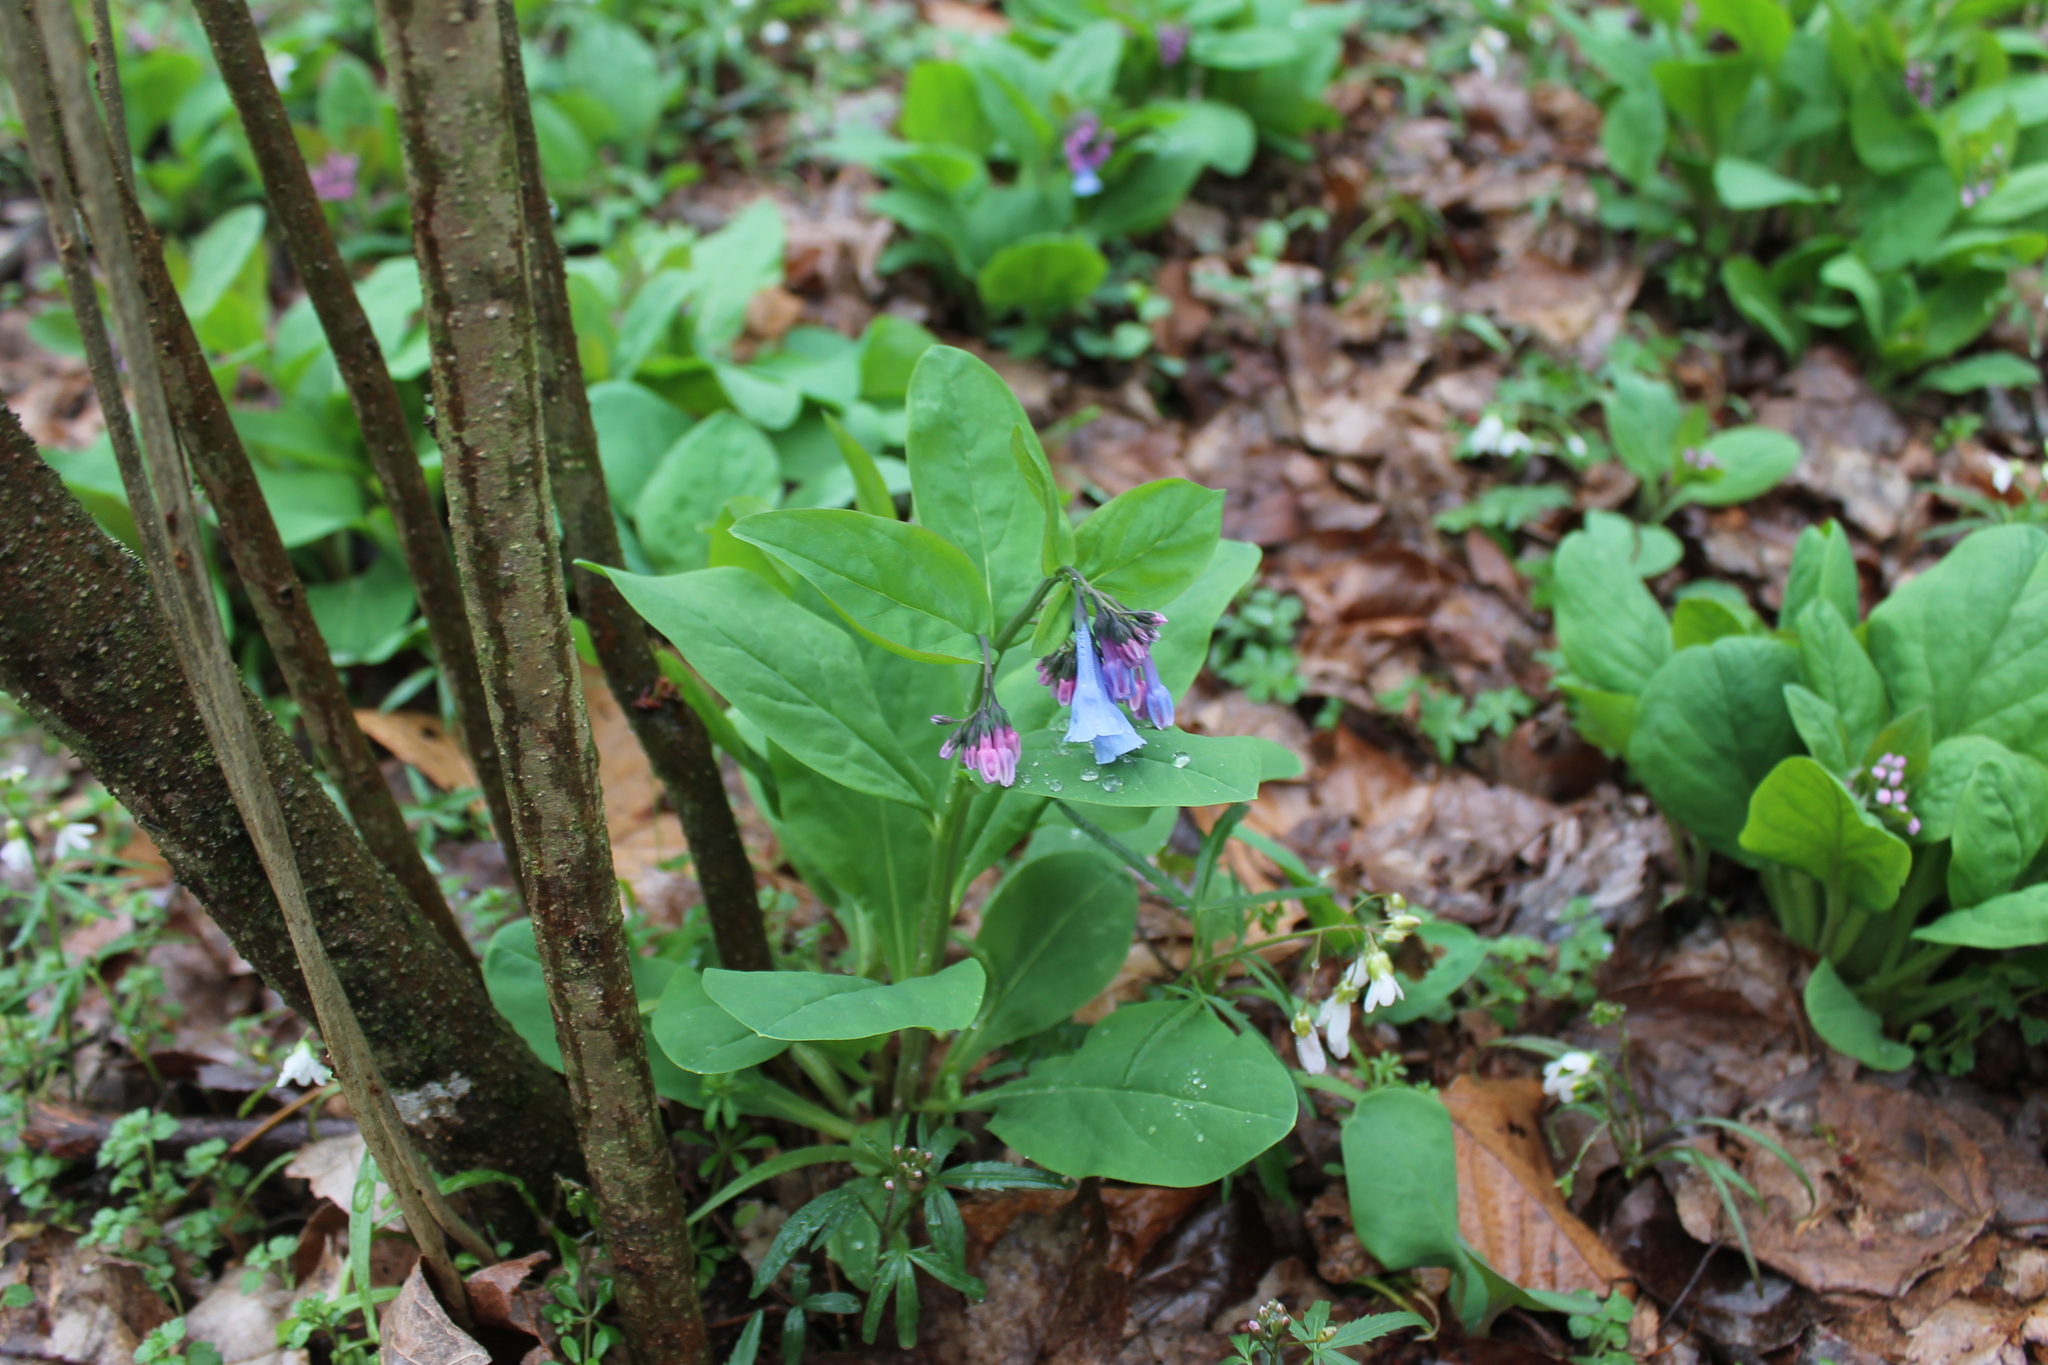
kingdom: Plantae
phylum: Tracheophyta
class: Magnoliopsida
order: Boraginales
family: Boraginaceae
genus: Mertensia
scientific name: Mertensia virginica
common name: Virginia bluebells
